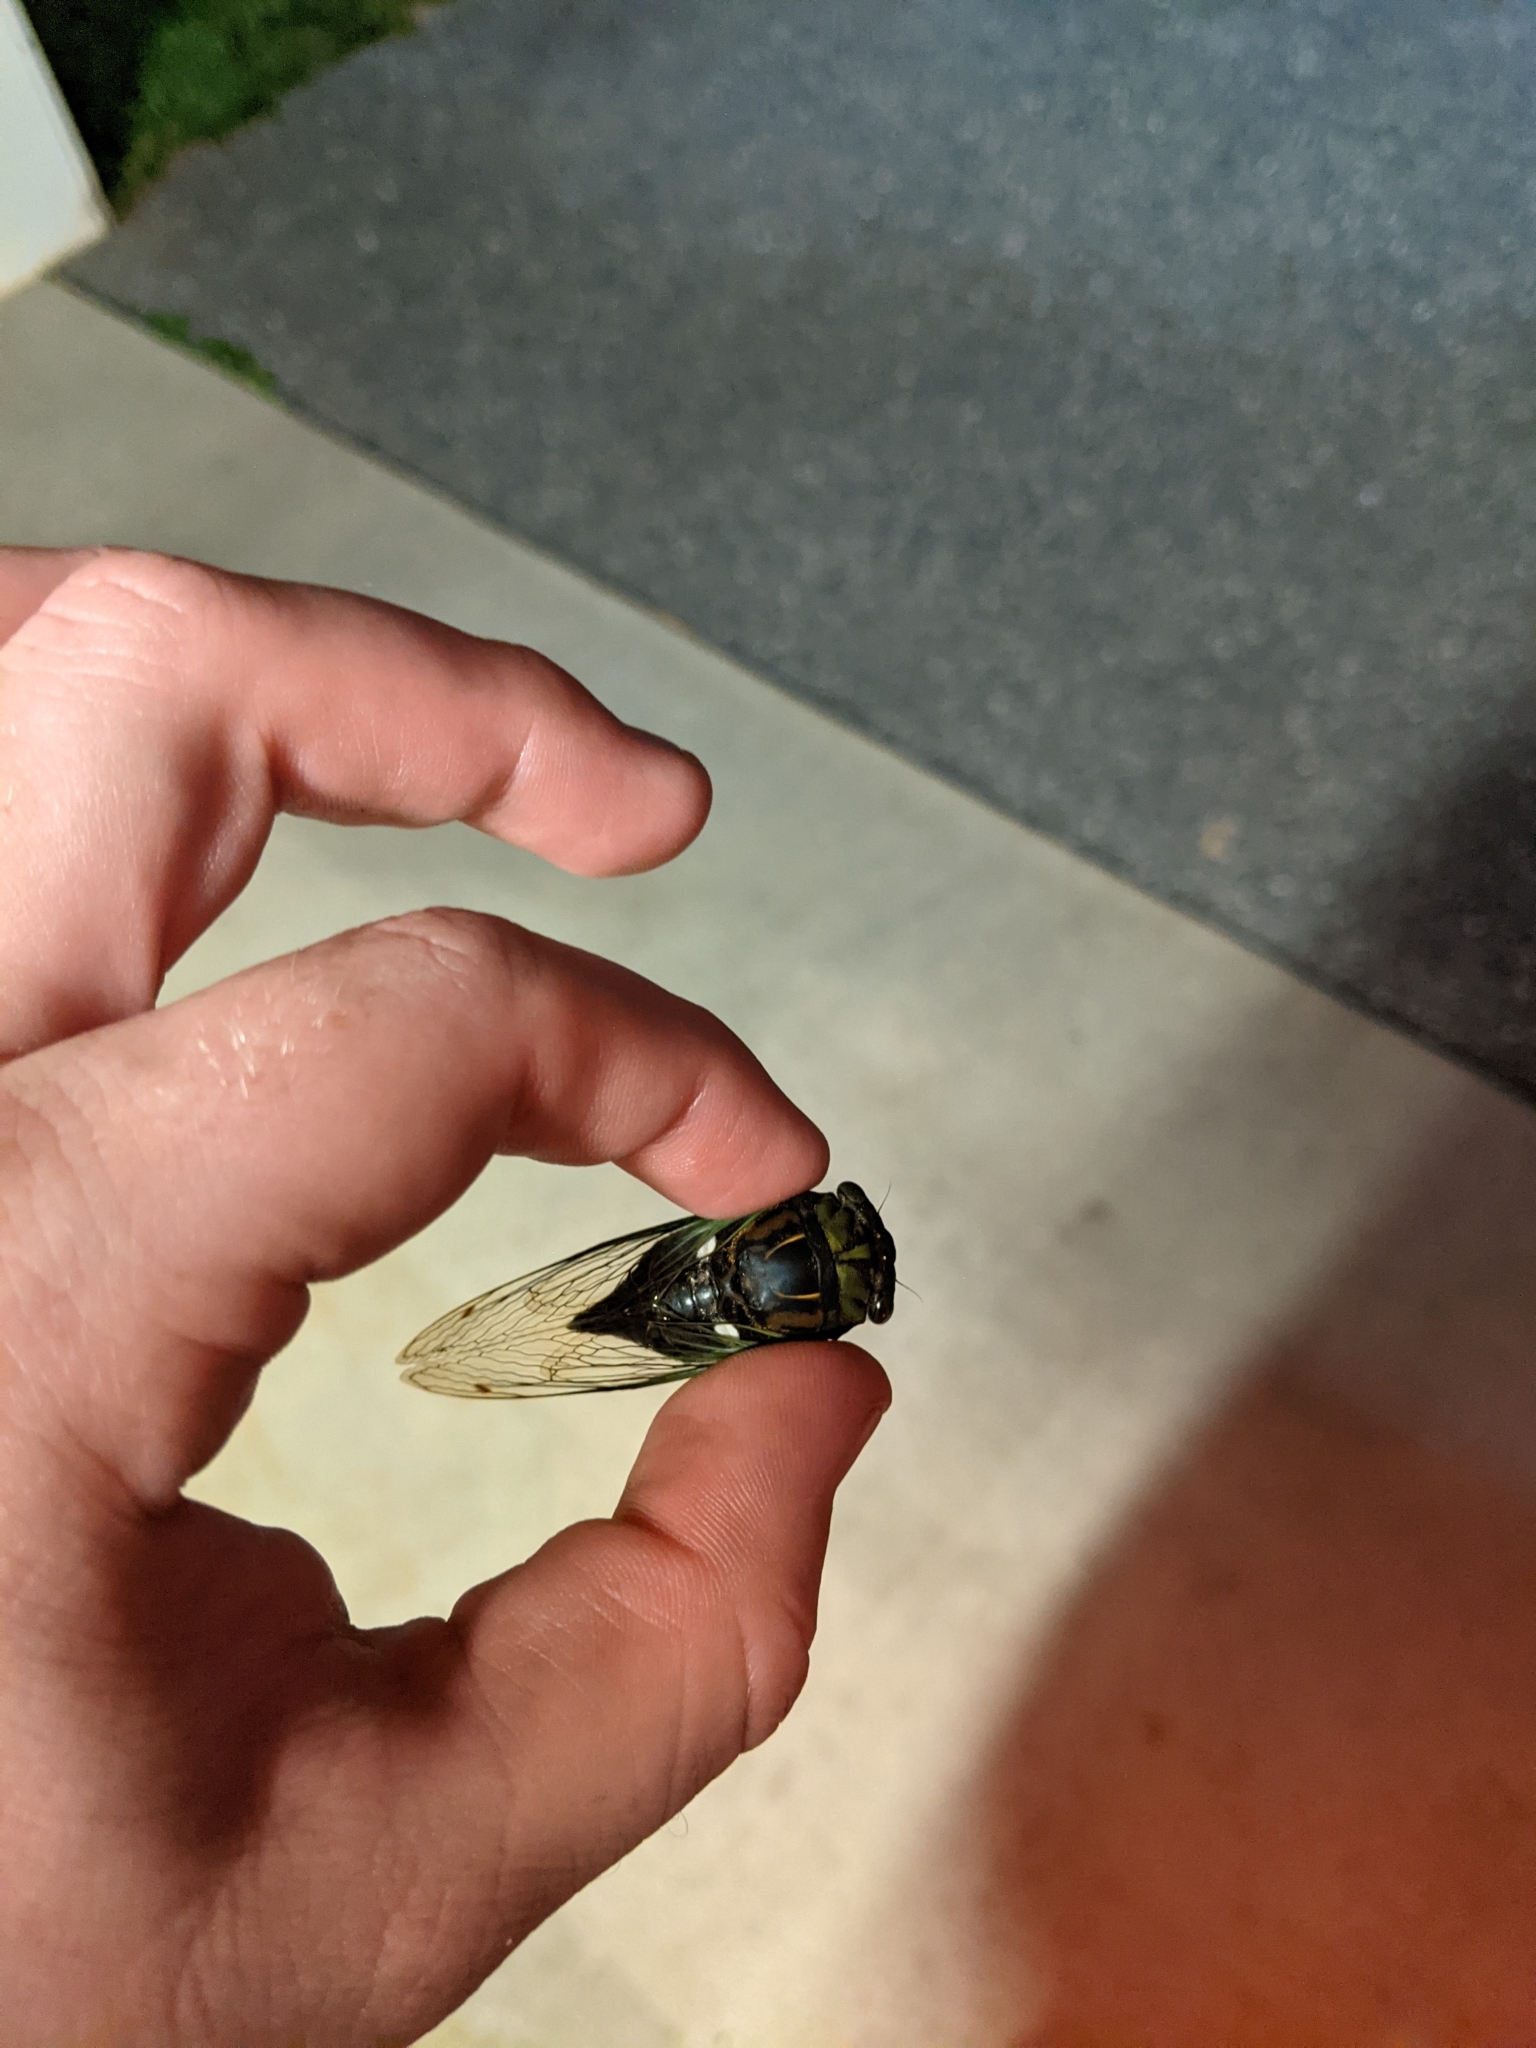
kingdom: Animalia
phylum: Arthropoda
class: Insecta
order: Hemiptera
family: Cicadidae
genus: Neotibicen
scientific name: Neotibicen tibicen
